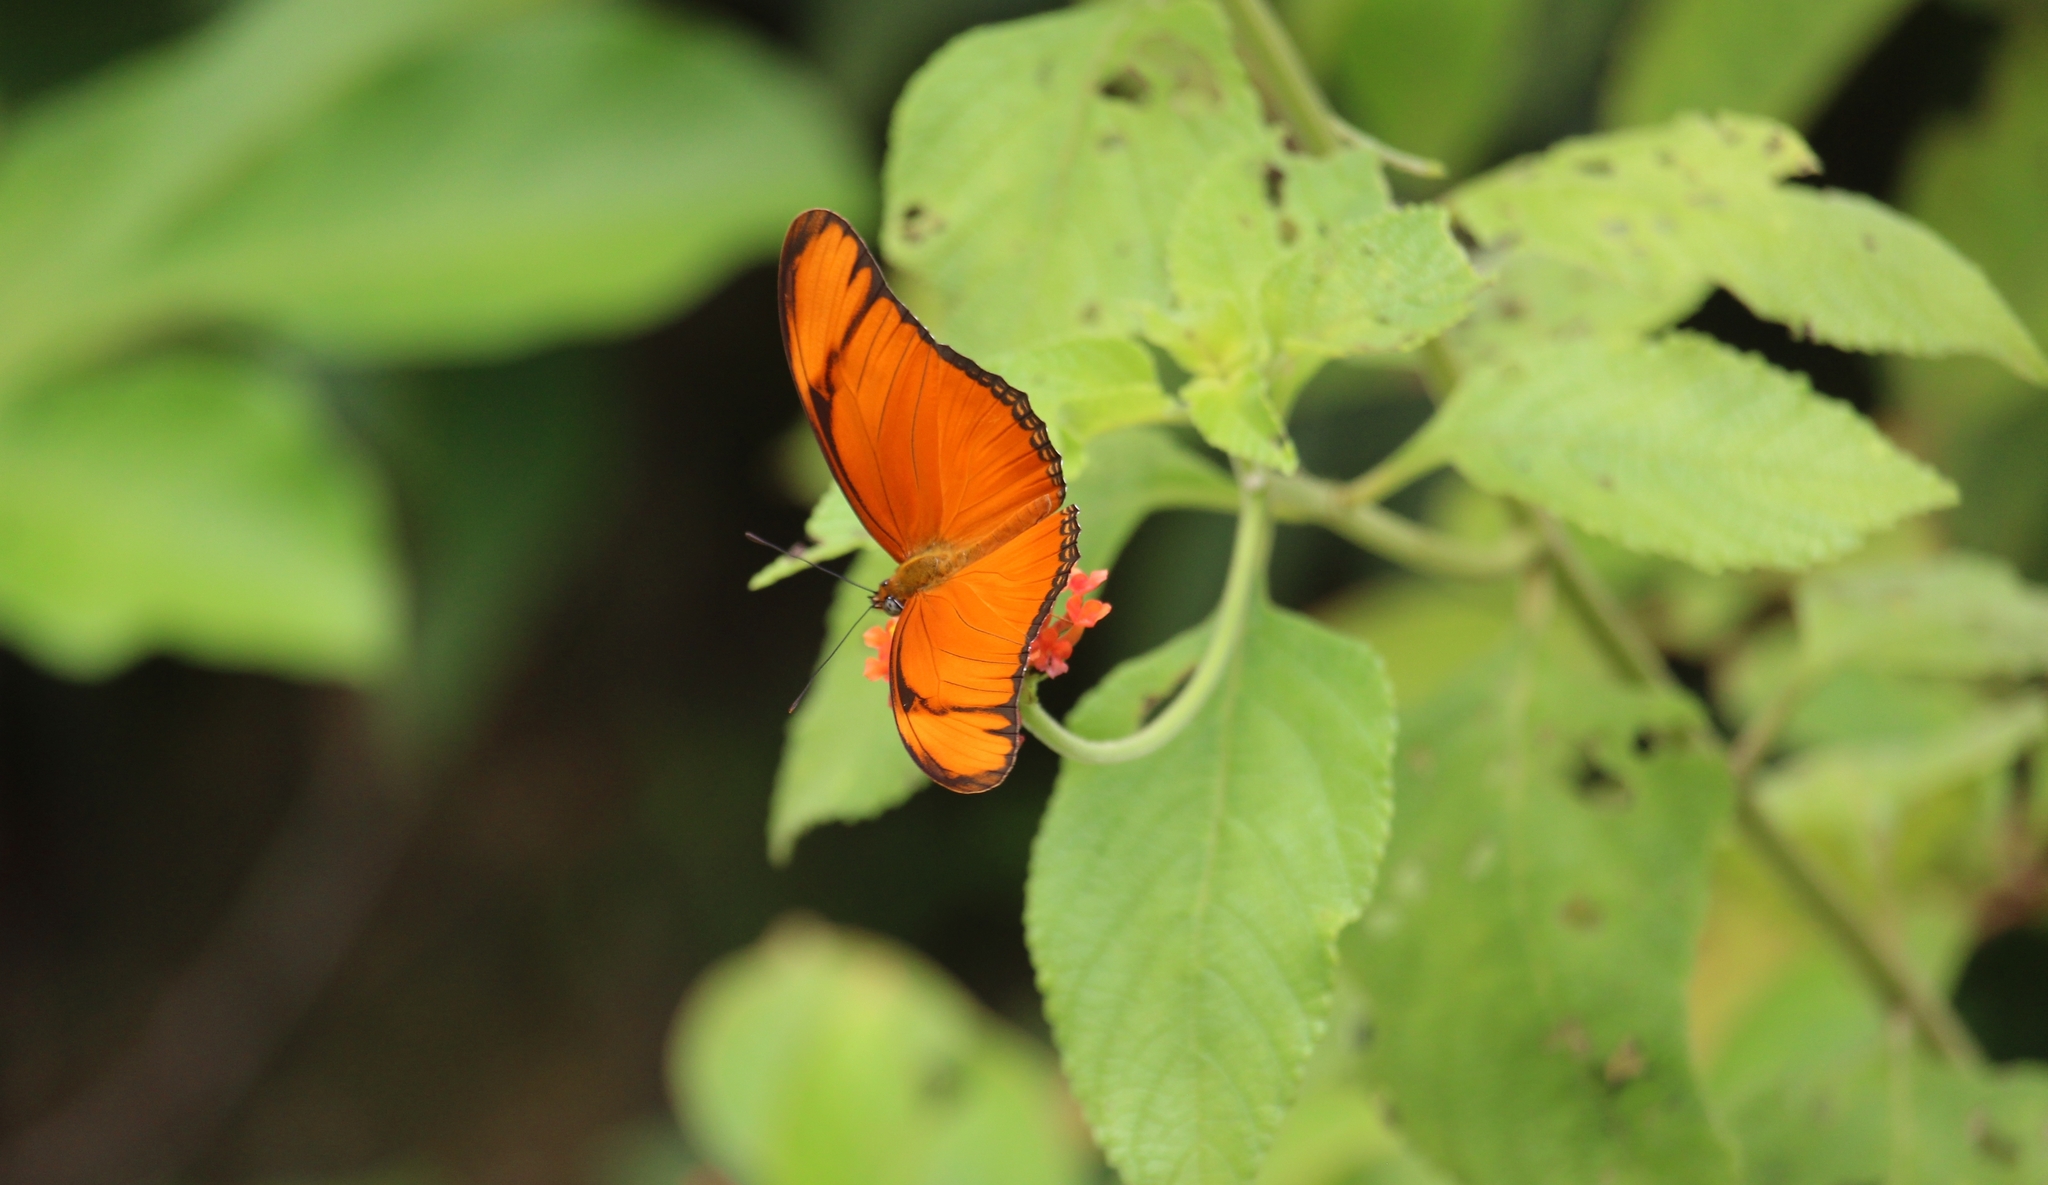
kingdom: Animalia
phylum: Arthropoda
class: Insecta
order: Lepidoptera
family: Nymphalidae
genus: Dryas
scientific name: Dryas iulia
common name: Flambeau
